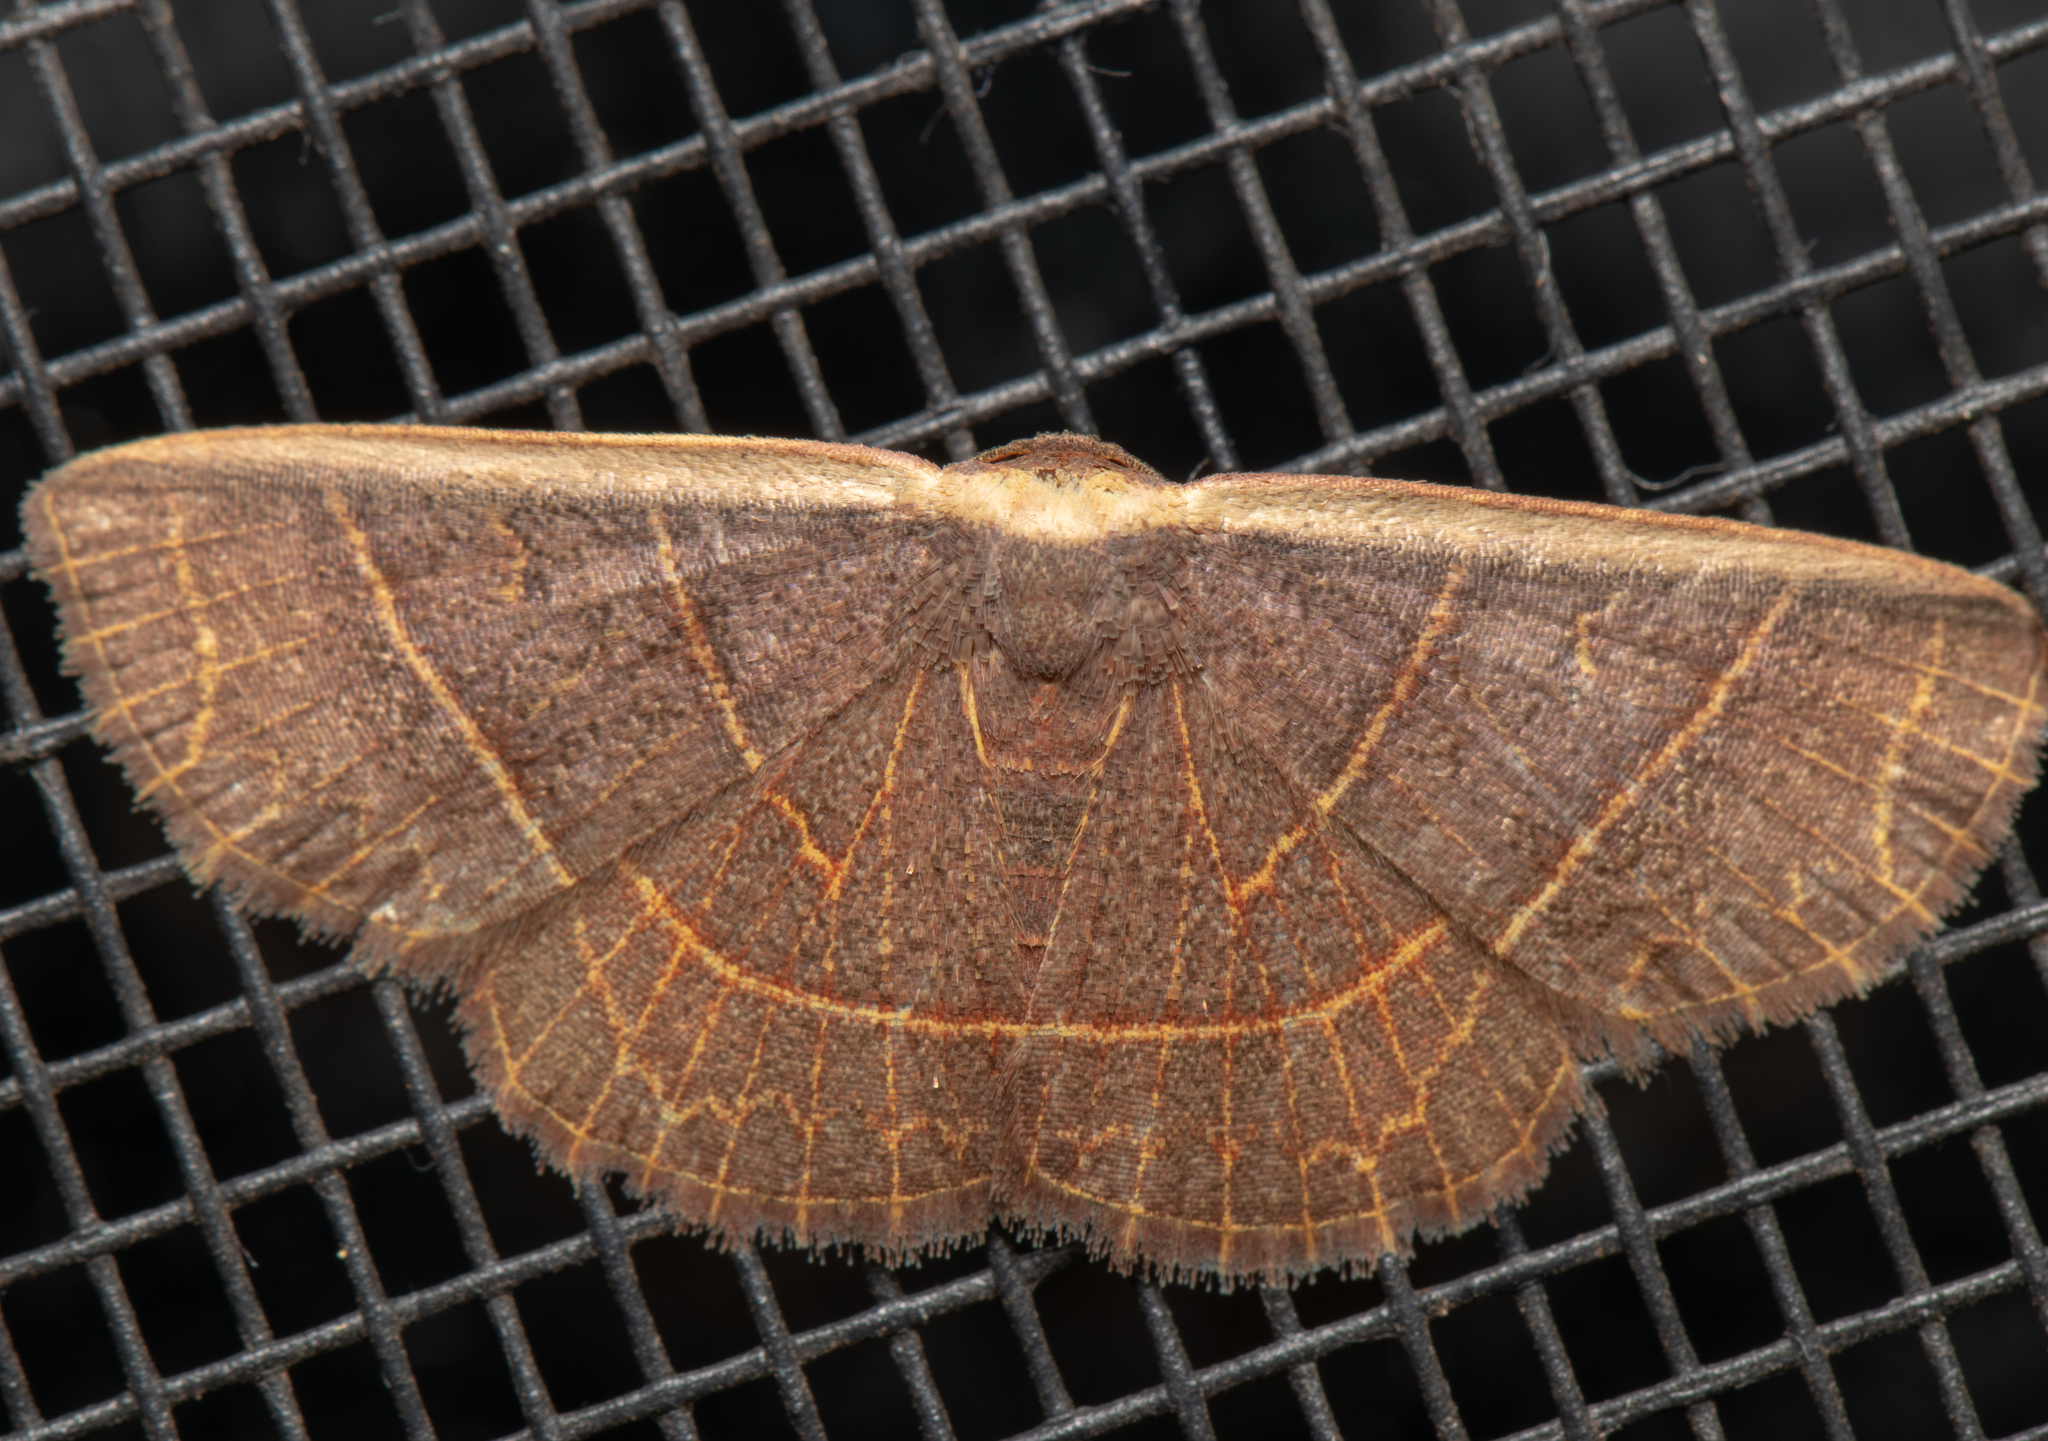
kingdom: Animalia
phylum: Arthropoda
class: Insecta
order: Lepidoptera
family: Noctuidae
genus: Oruza
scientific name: Oruza crocodeta
